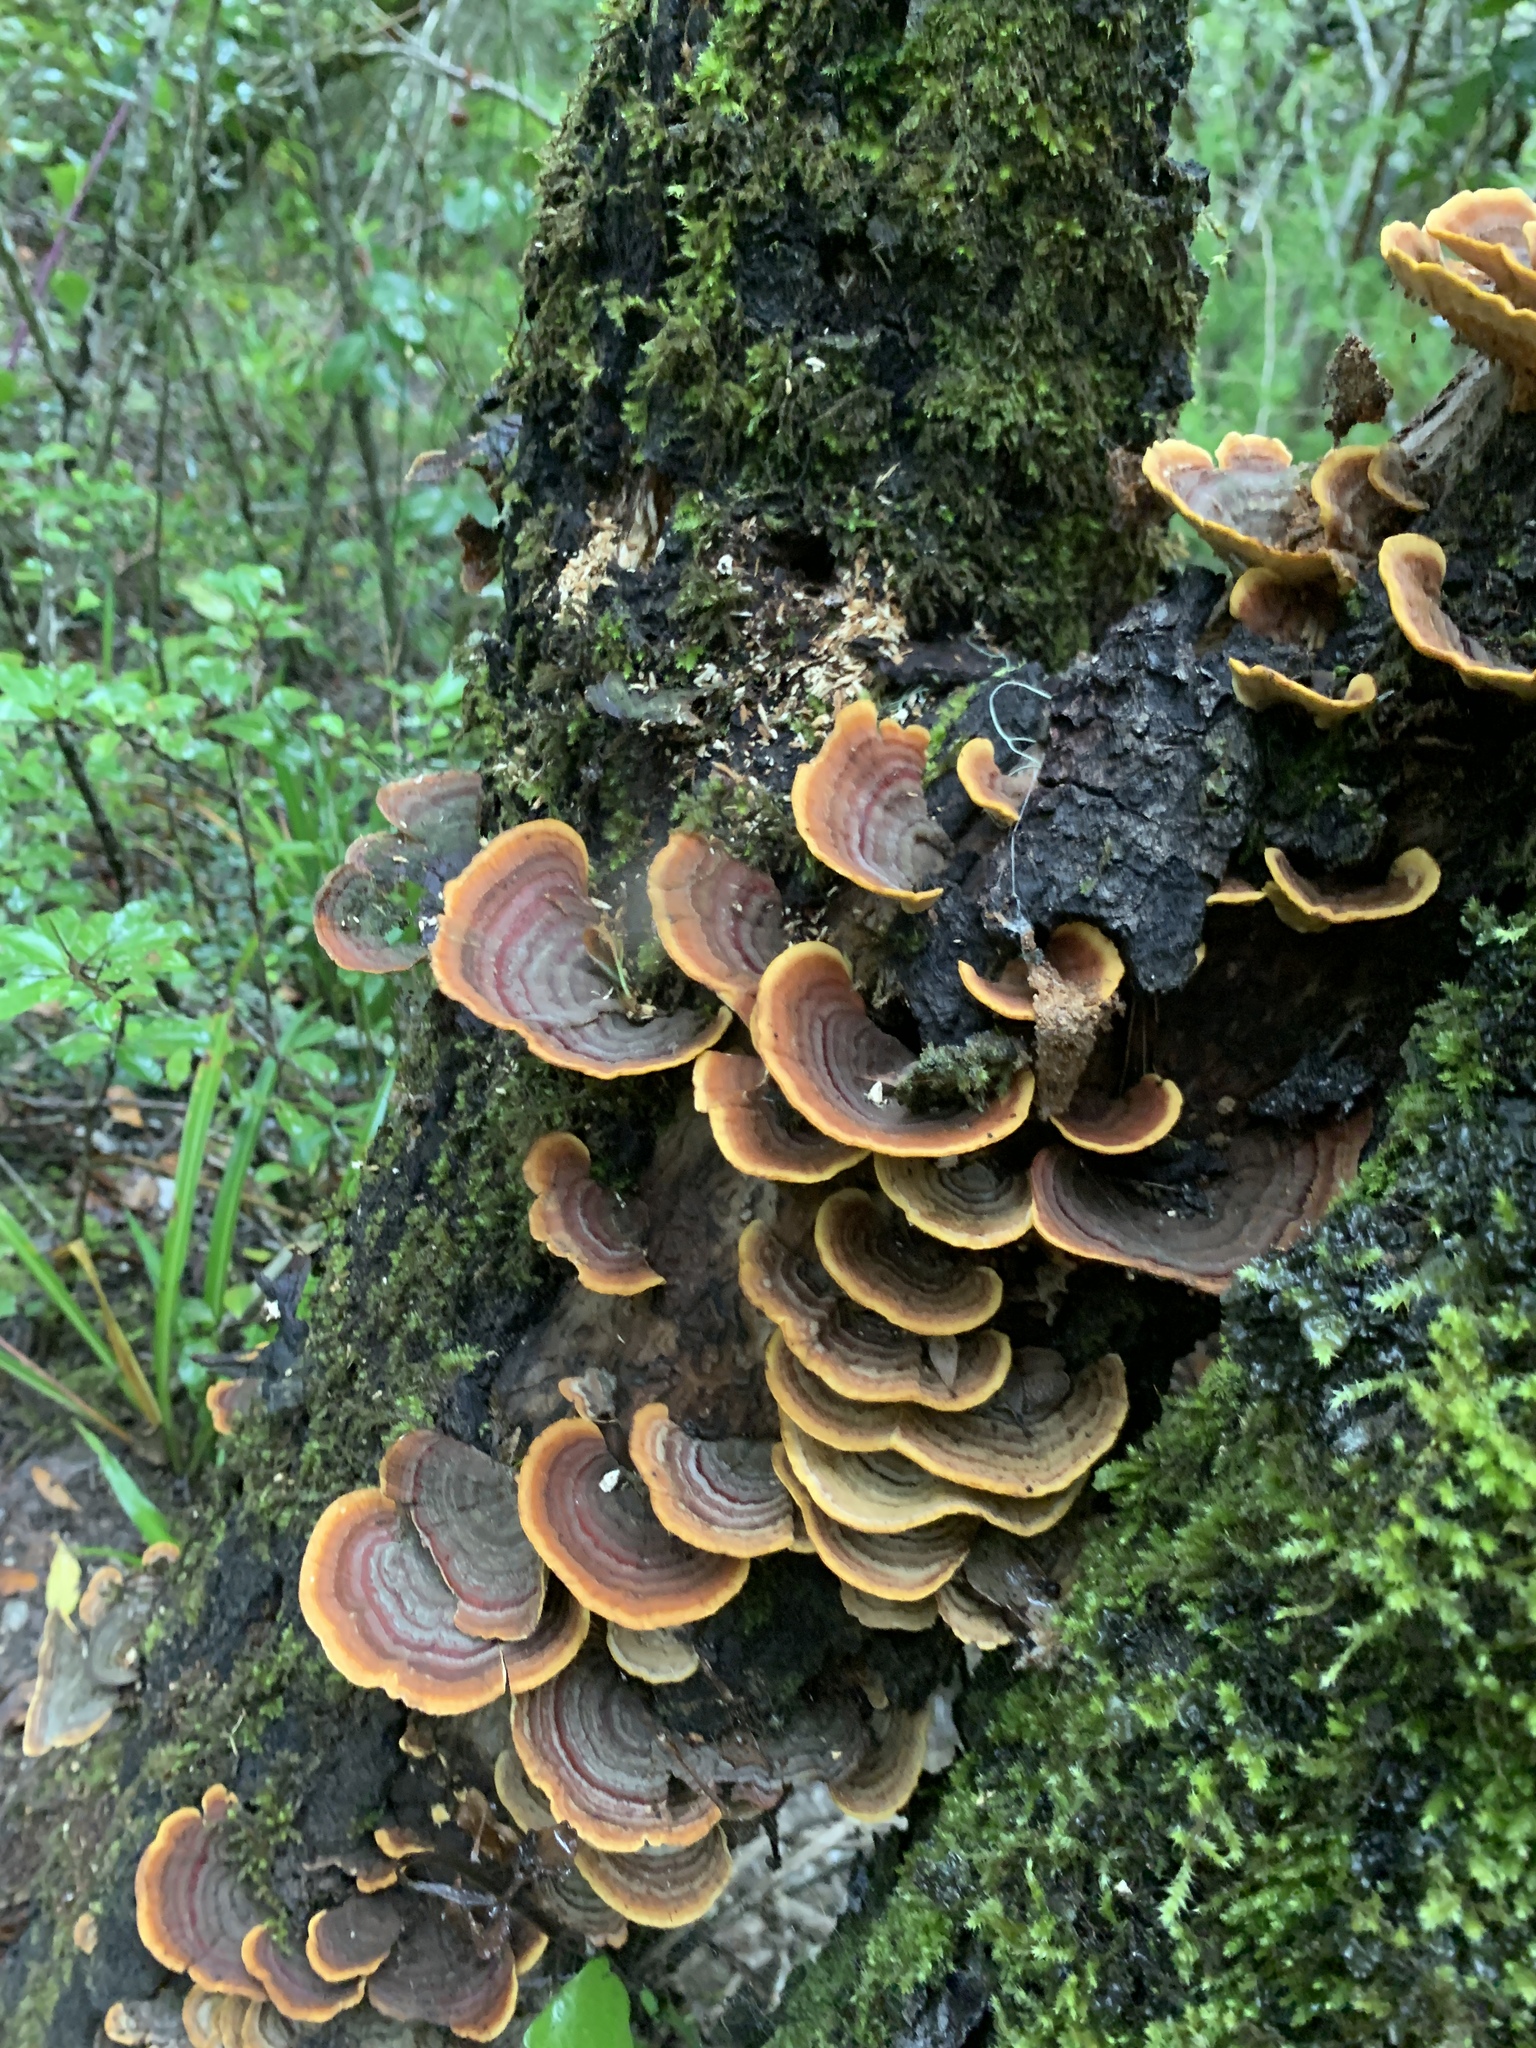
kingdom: Fungi
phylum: Basidiomycota
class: Agaricomycetes
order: Russulales
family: Stereaceae
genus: Stereum
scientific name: Stereum versicolor
